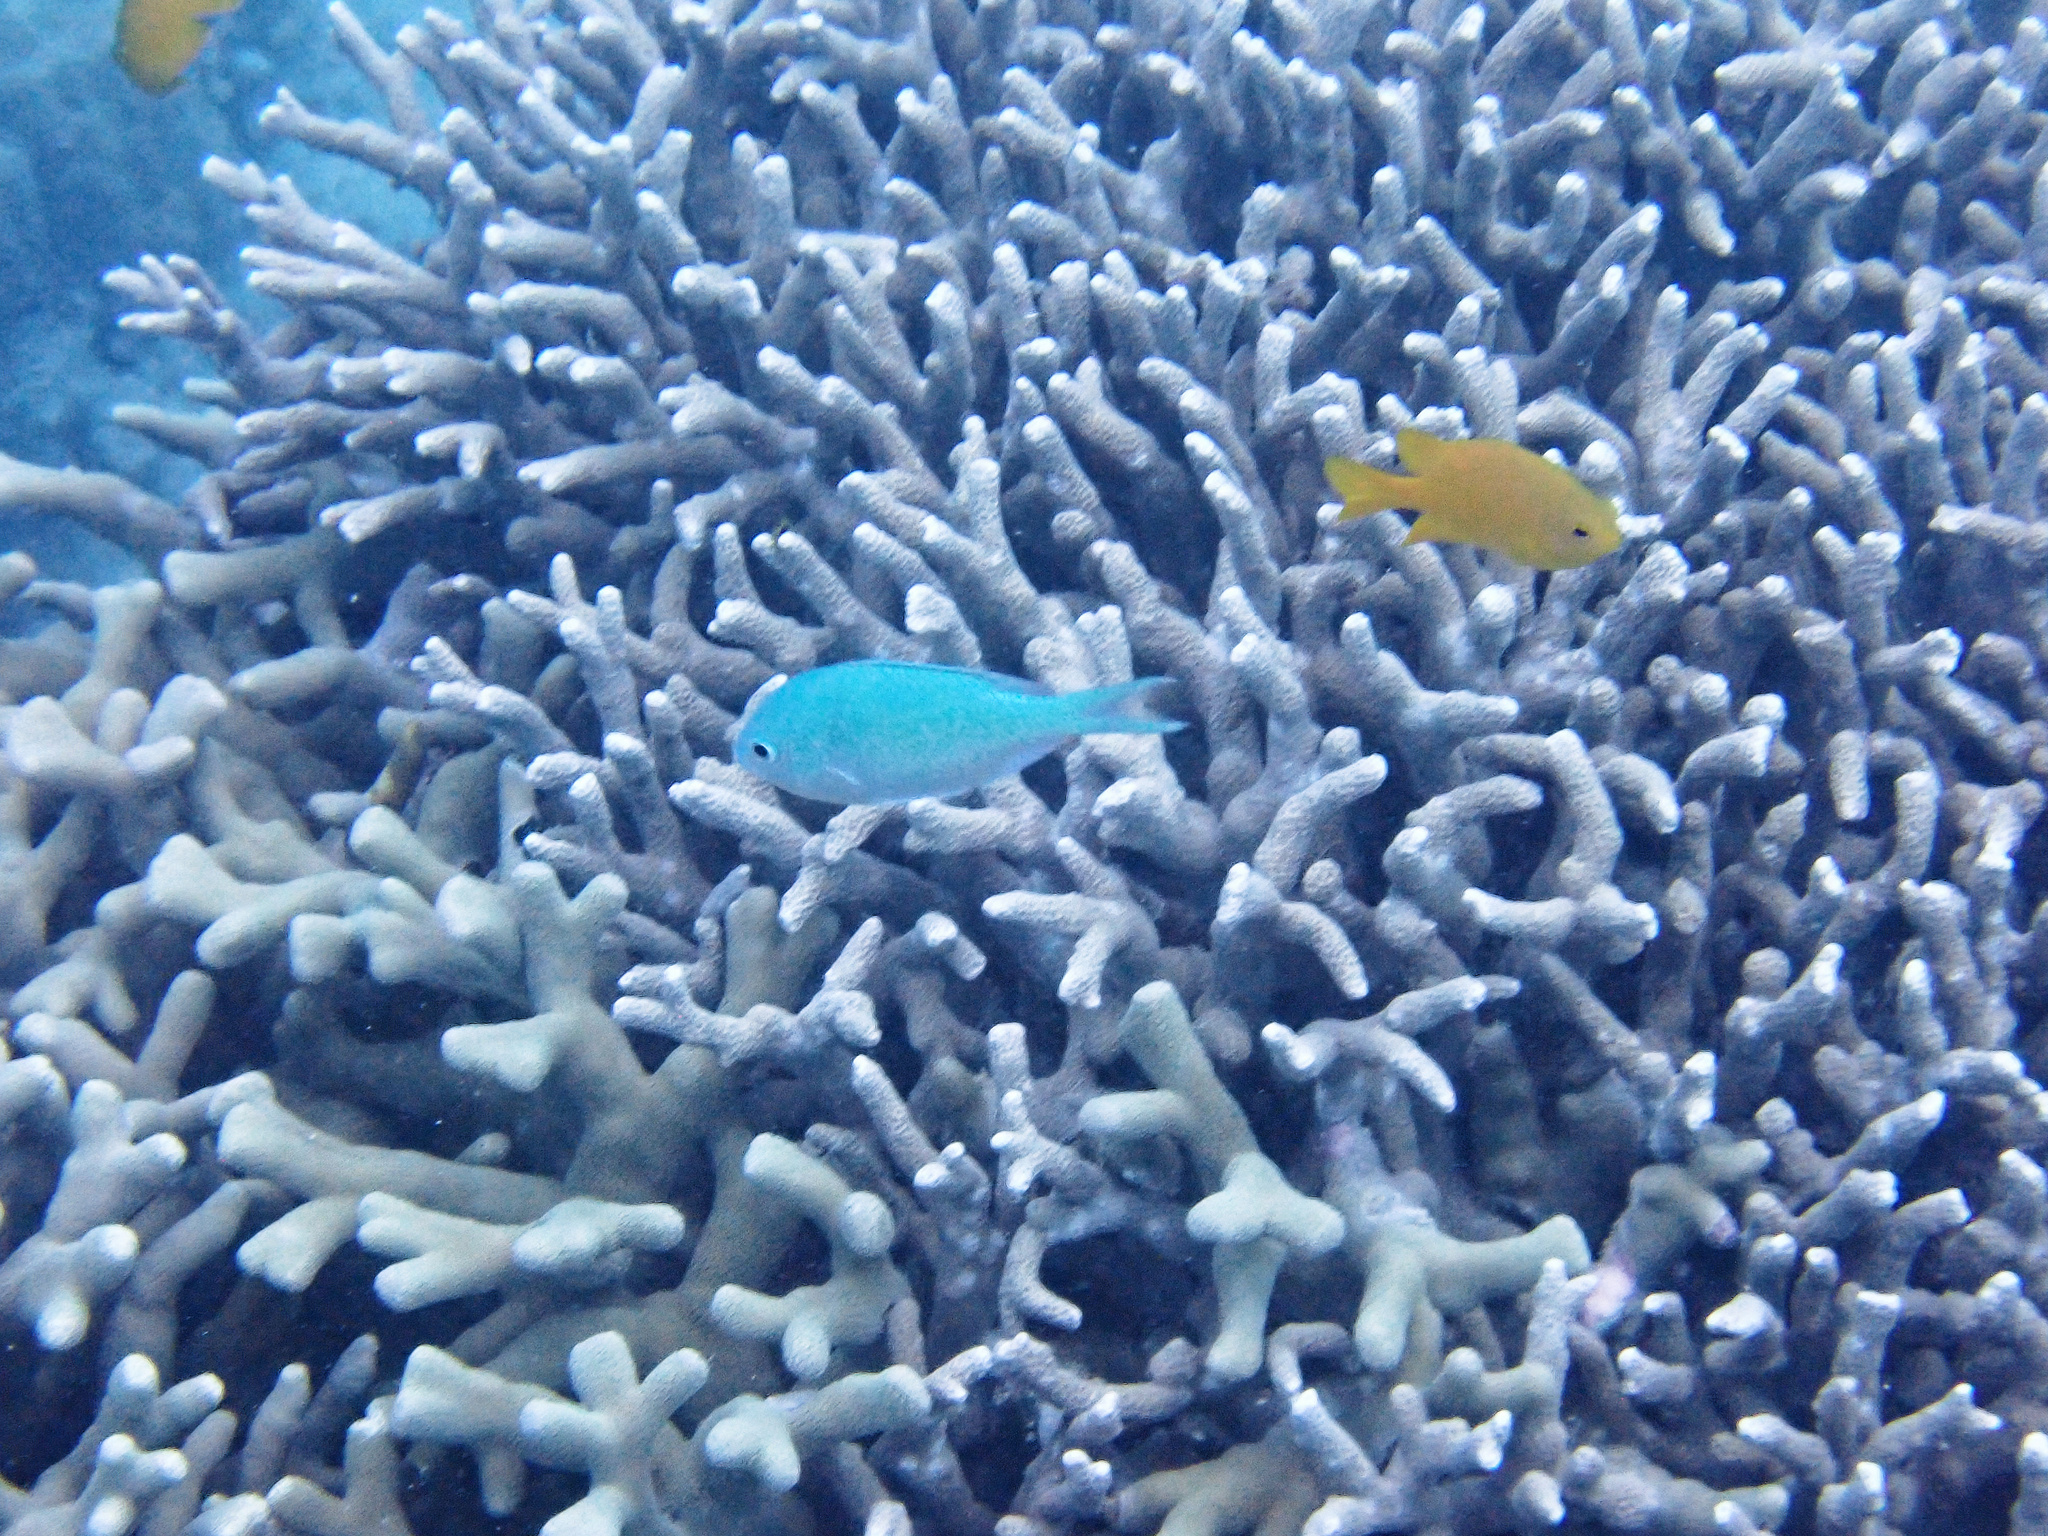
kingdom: Animalia
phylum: Chordata
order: Perciformes
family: Pomacentridae
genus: Chromis
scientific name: Chromis viridis
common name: Blue-green chromis
